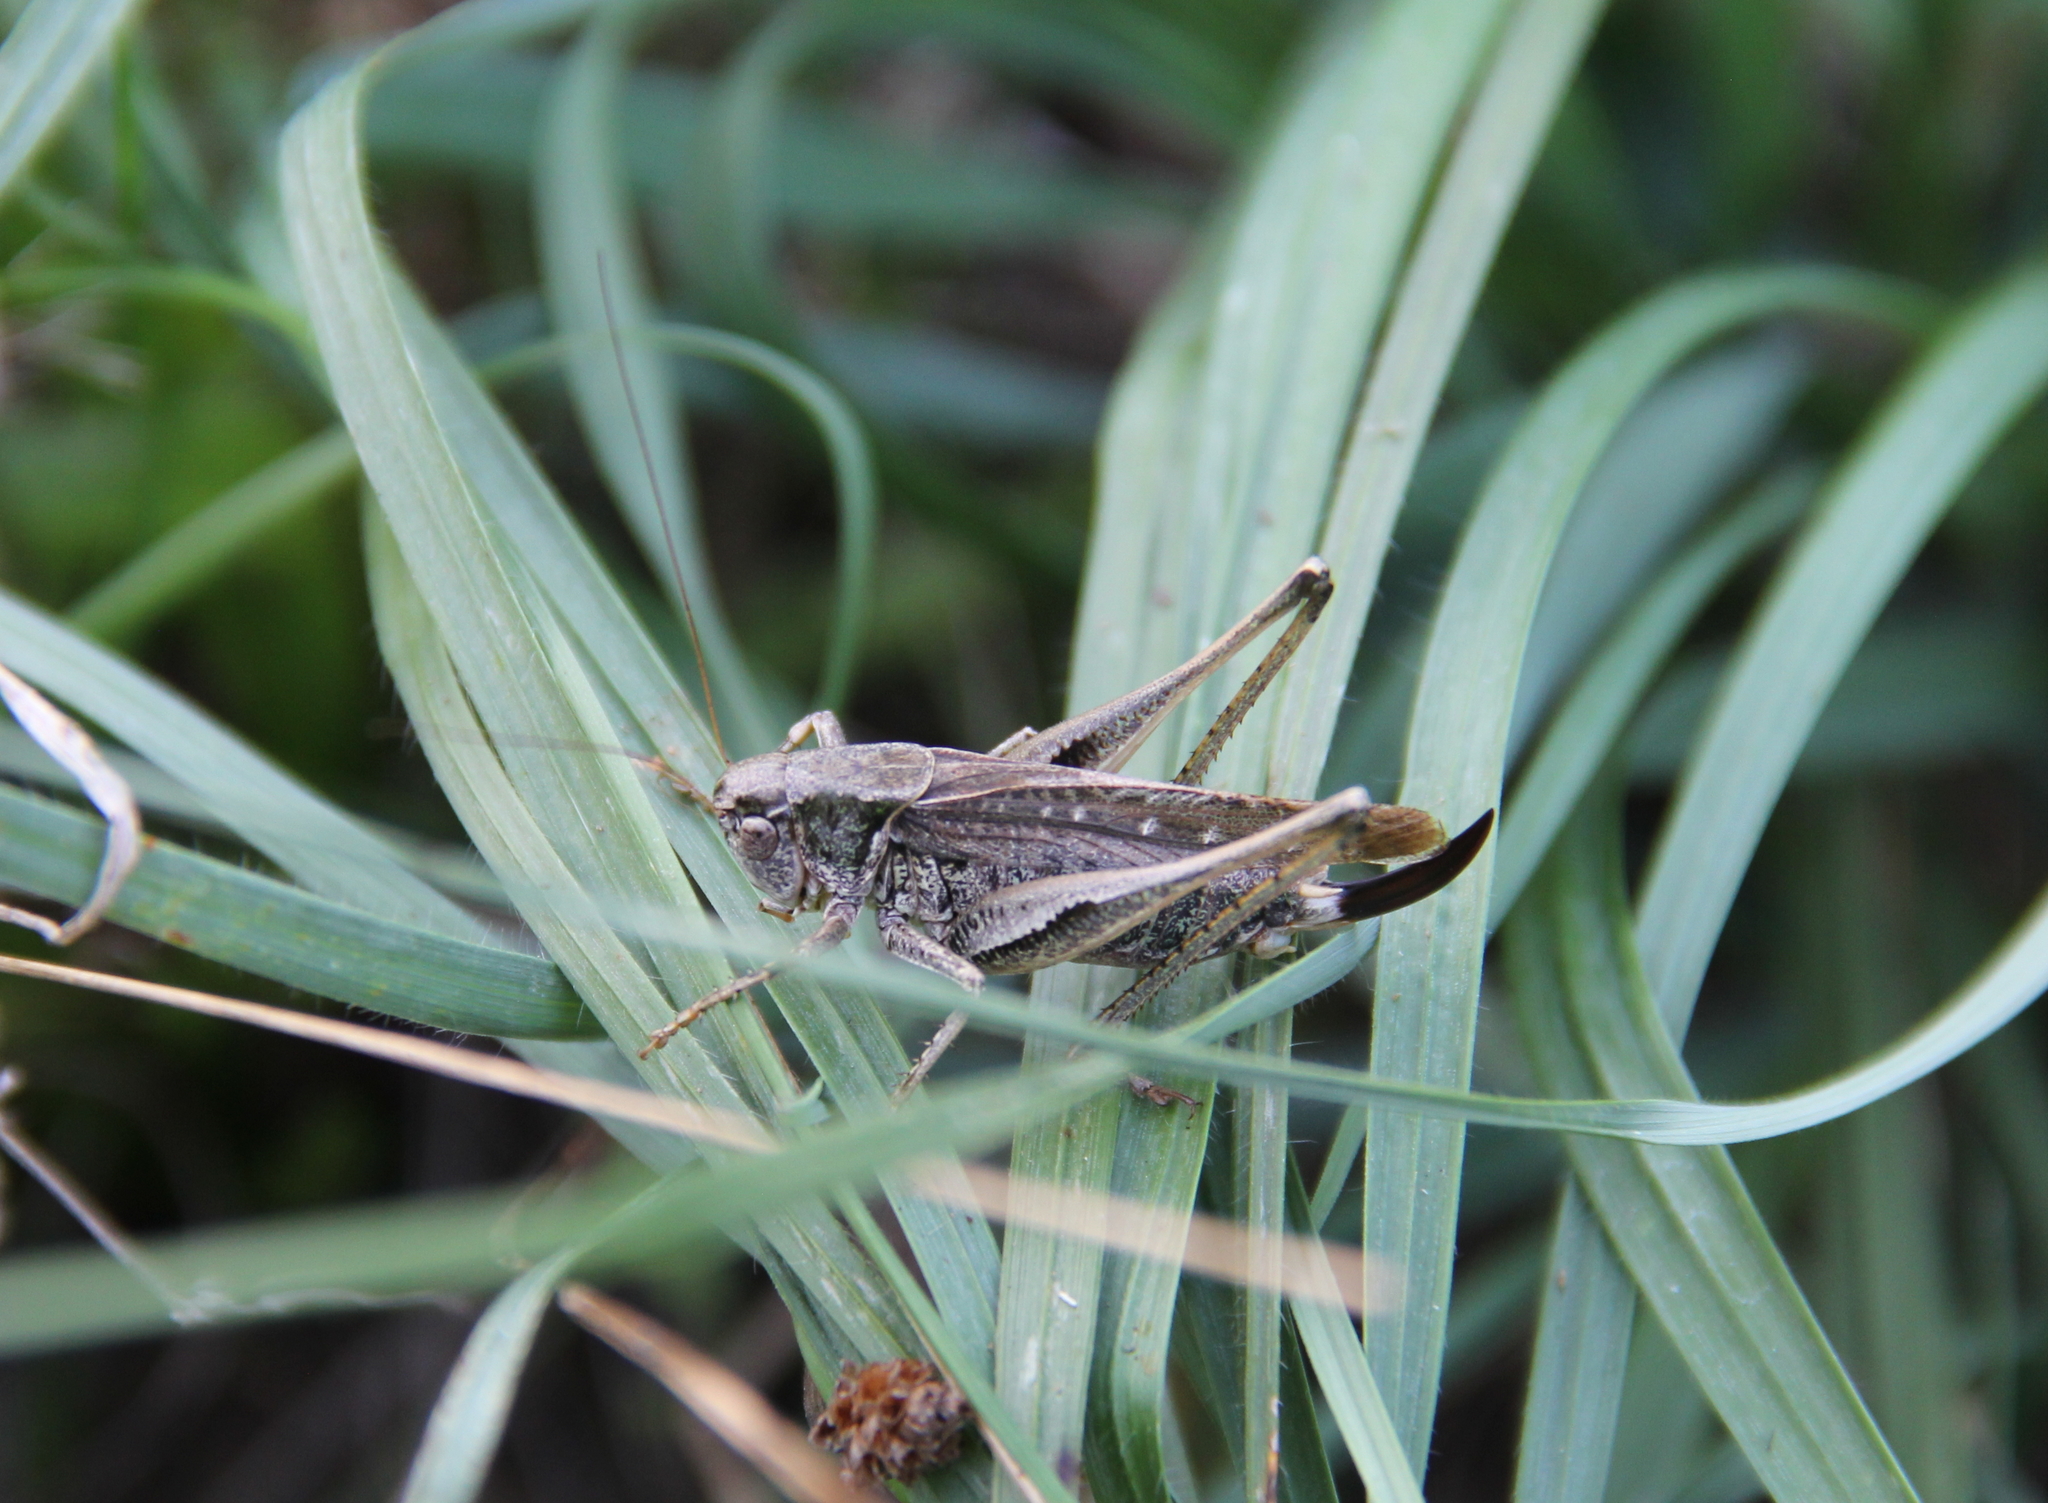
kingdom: Animalia
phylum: Arthropoda
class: Insecta
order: Orthoptera
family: Tettigoniidae
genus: Platycleis
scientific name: Platycleis albopunctata
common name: Grey bush-cricket
